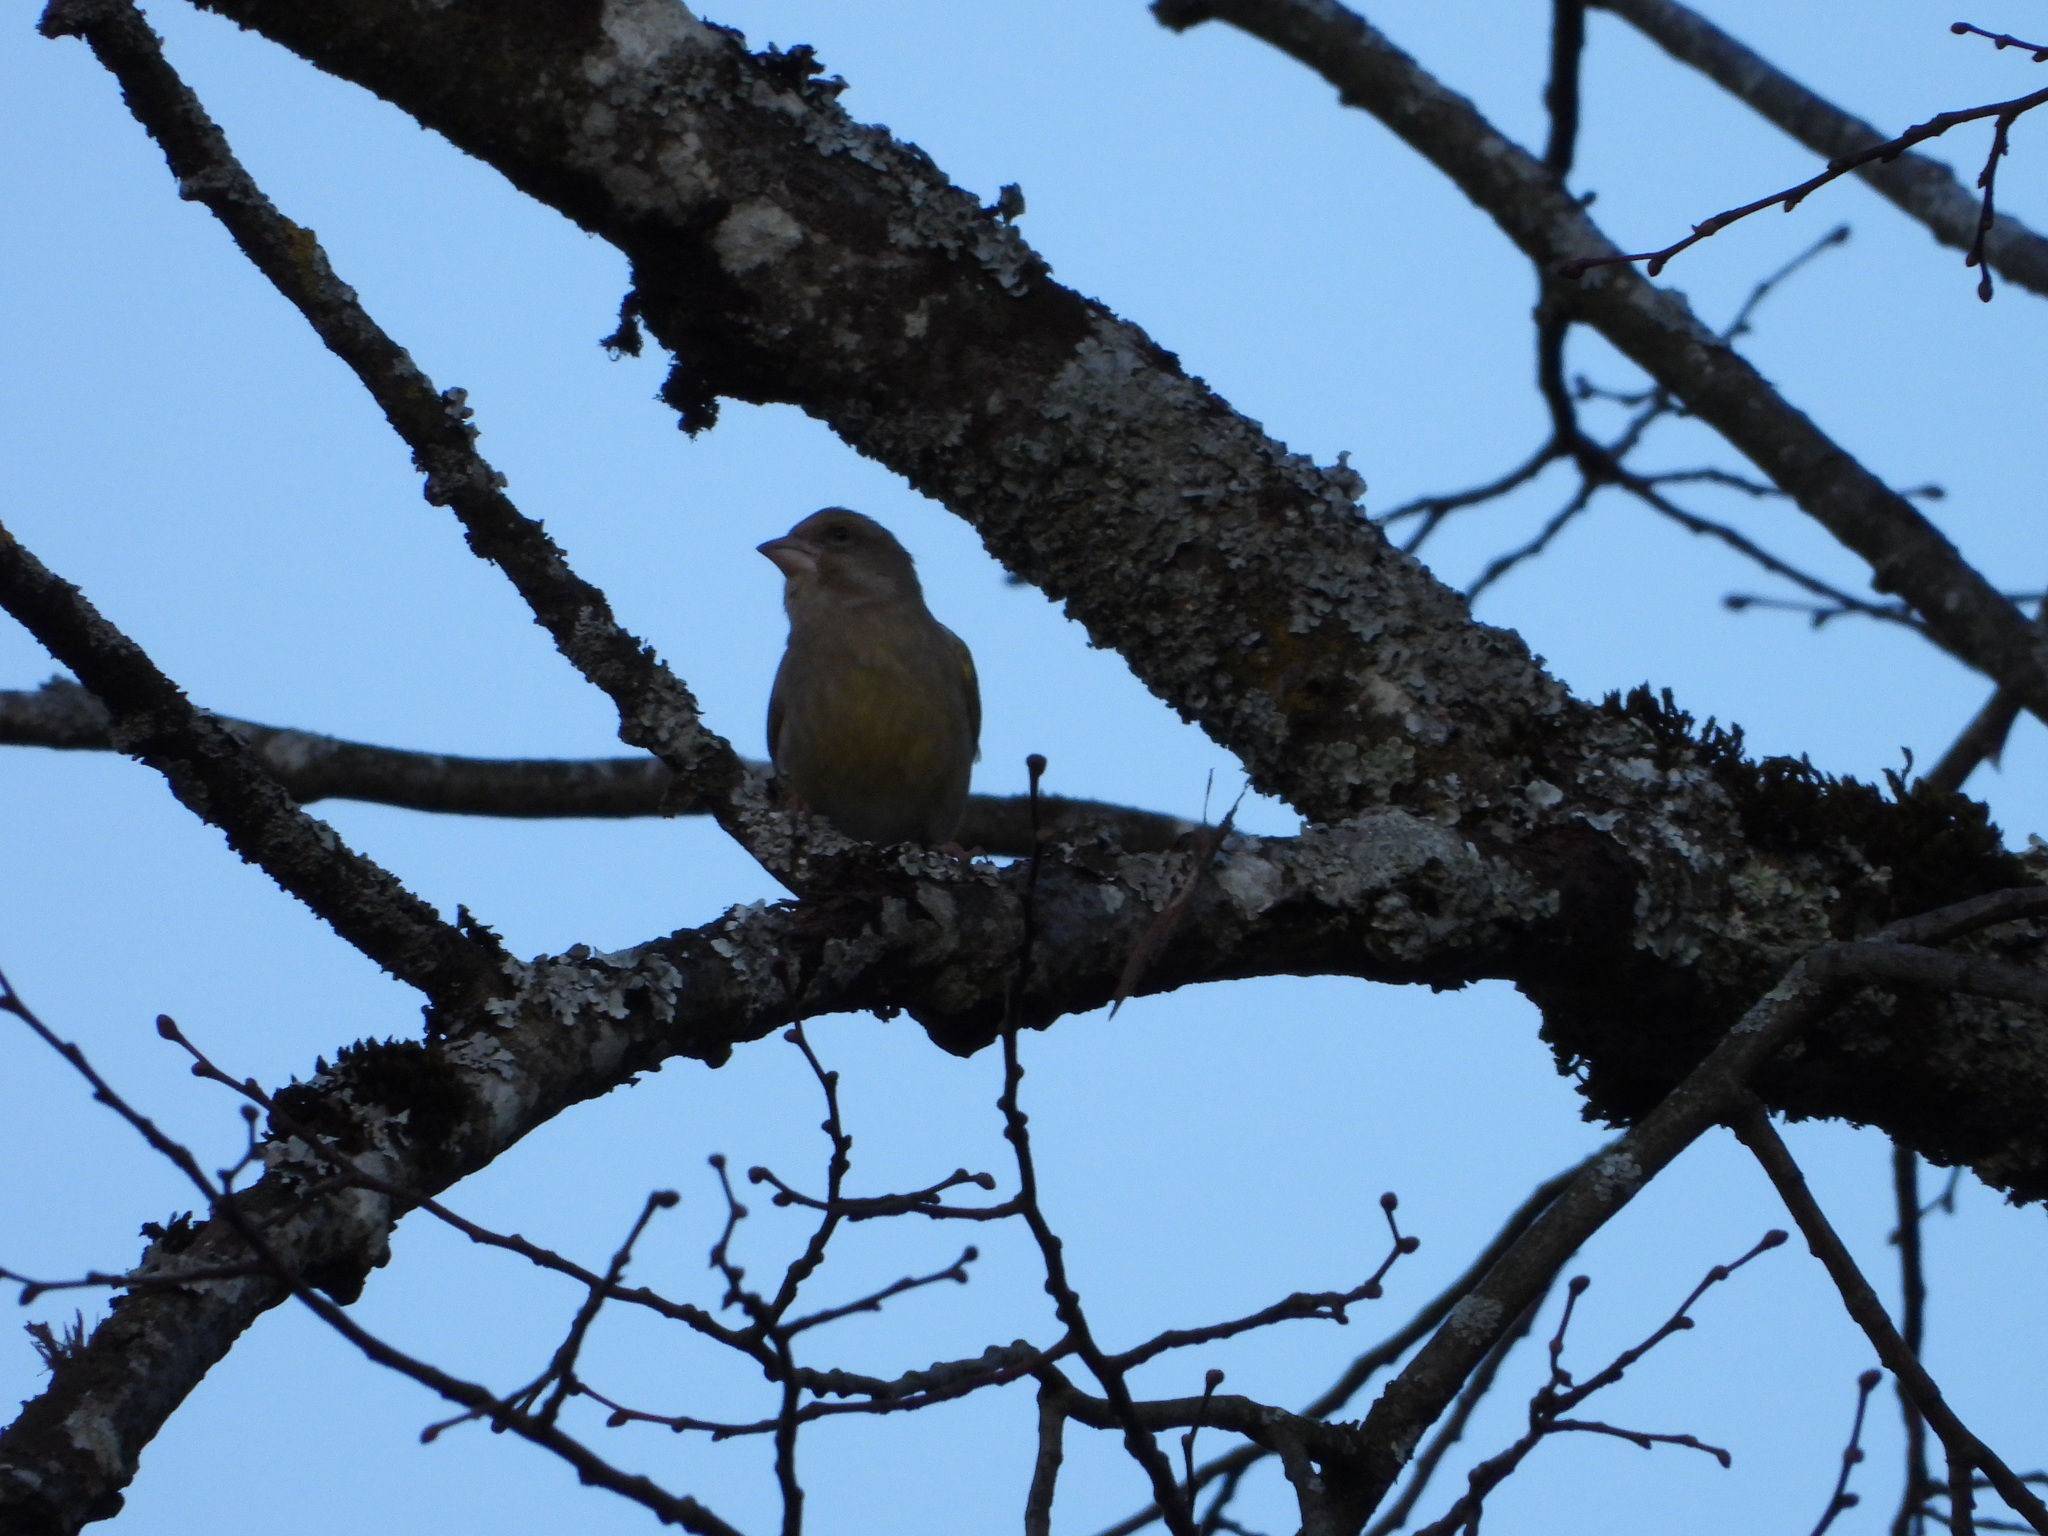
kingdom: Plantae
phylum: Tracheophyta
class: Liliopsida
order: Poales
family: Poaceae
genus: Chloris
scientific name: Chloris chloris
